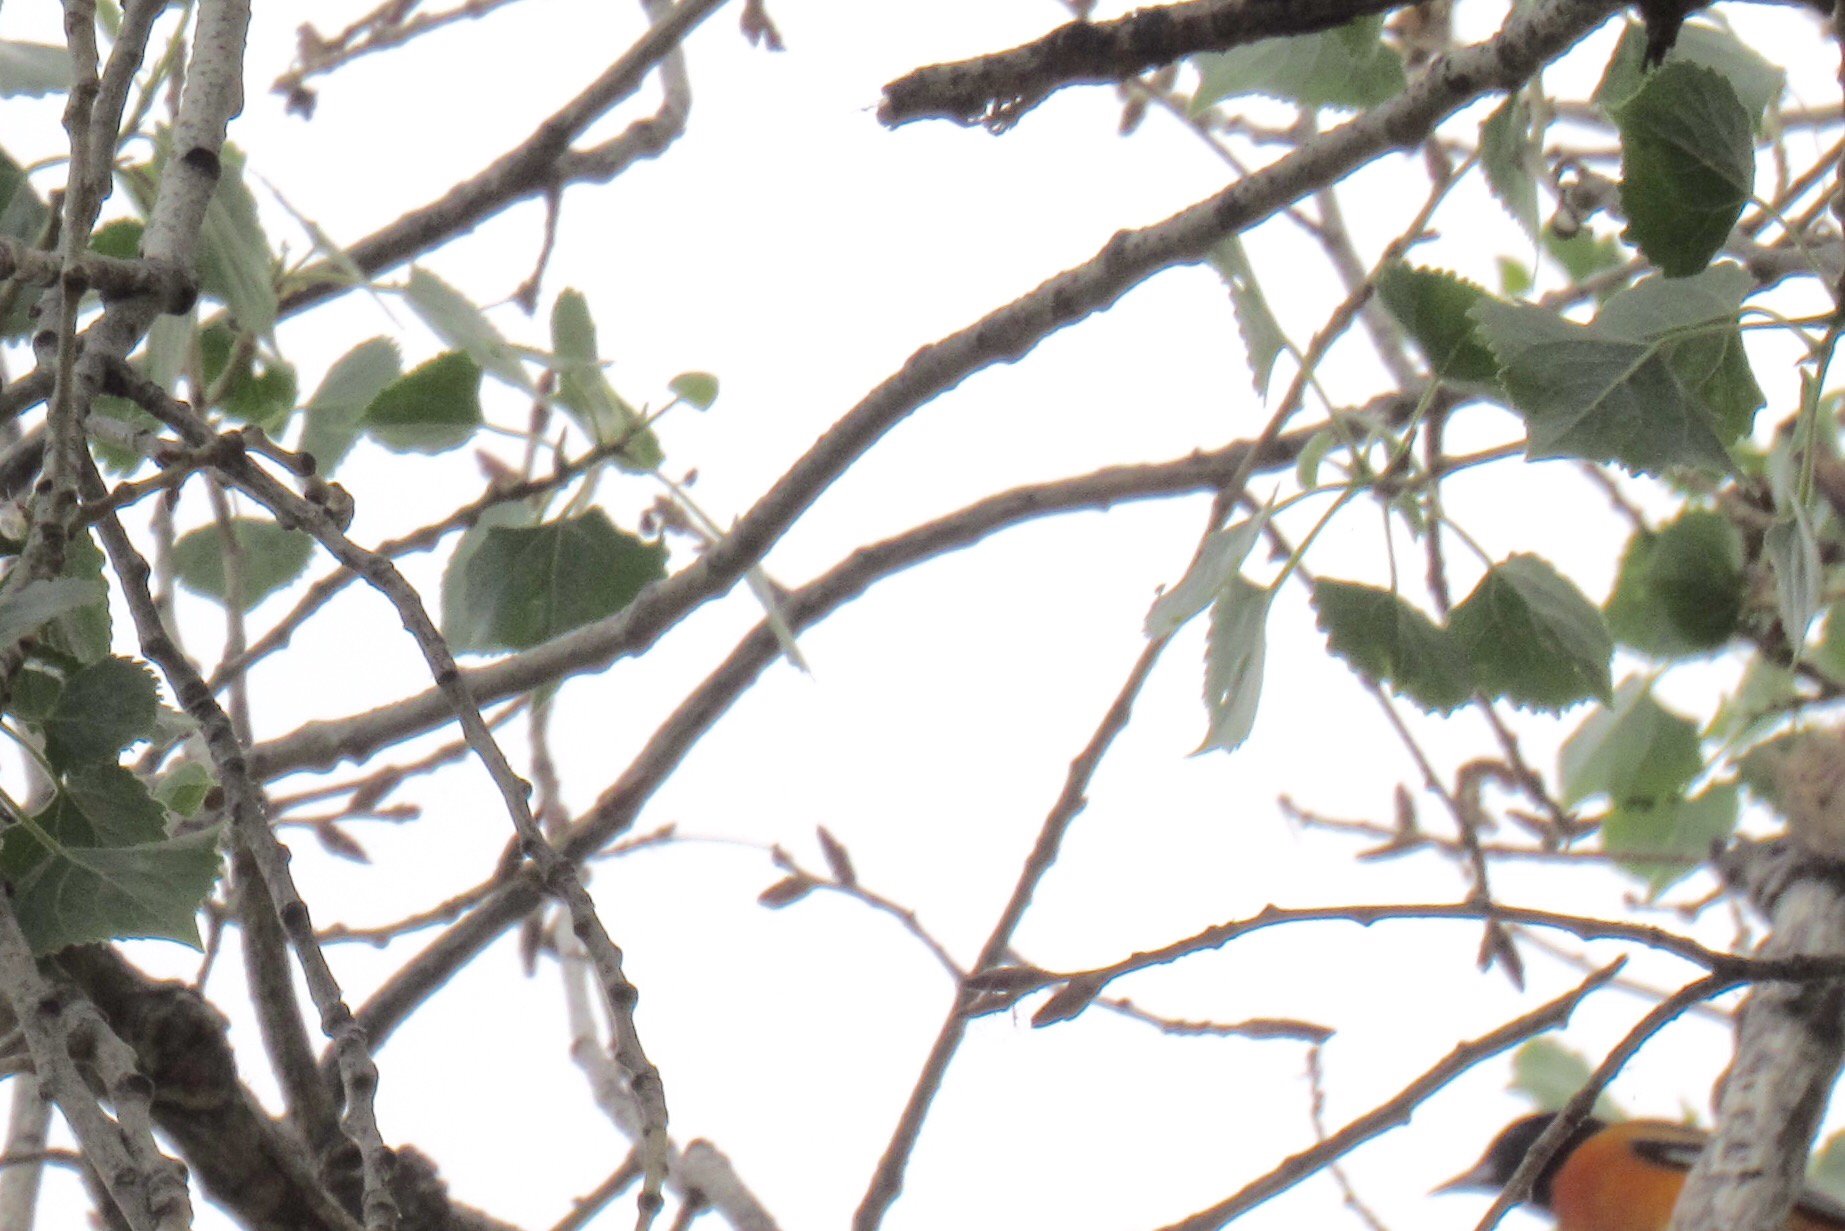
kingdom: Animalia
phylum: Chordata
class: Aves
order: Passeriformes
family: Icteridae
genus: Icterus
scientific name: Icterus galbula
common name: Baltimore oriole
